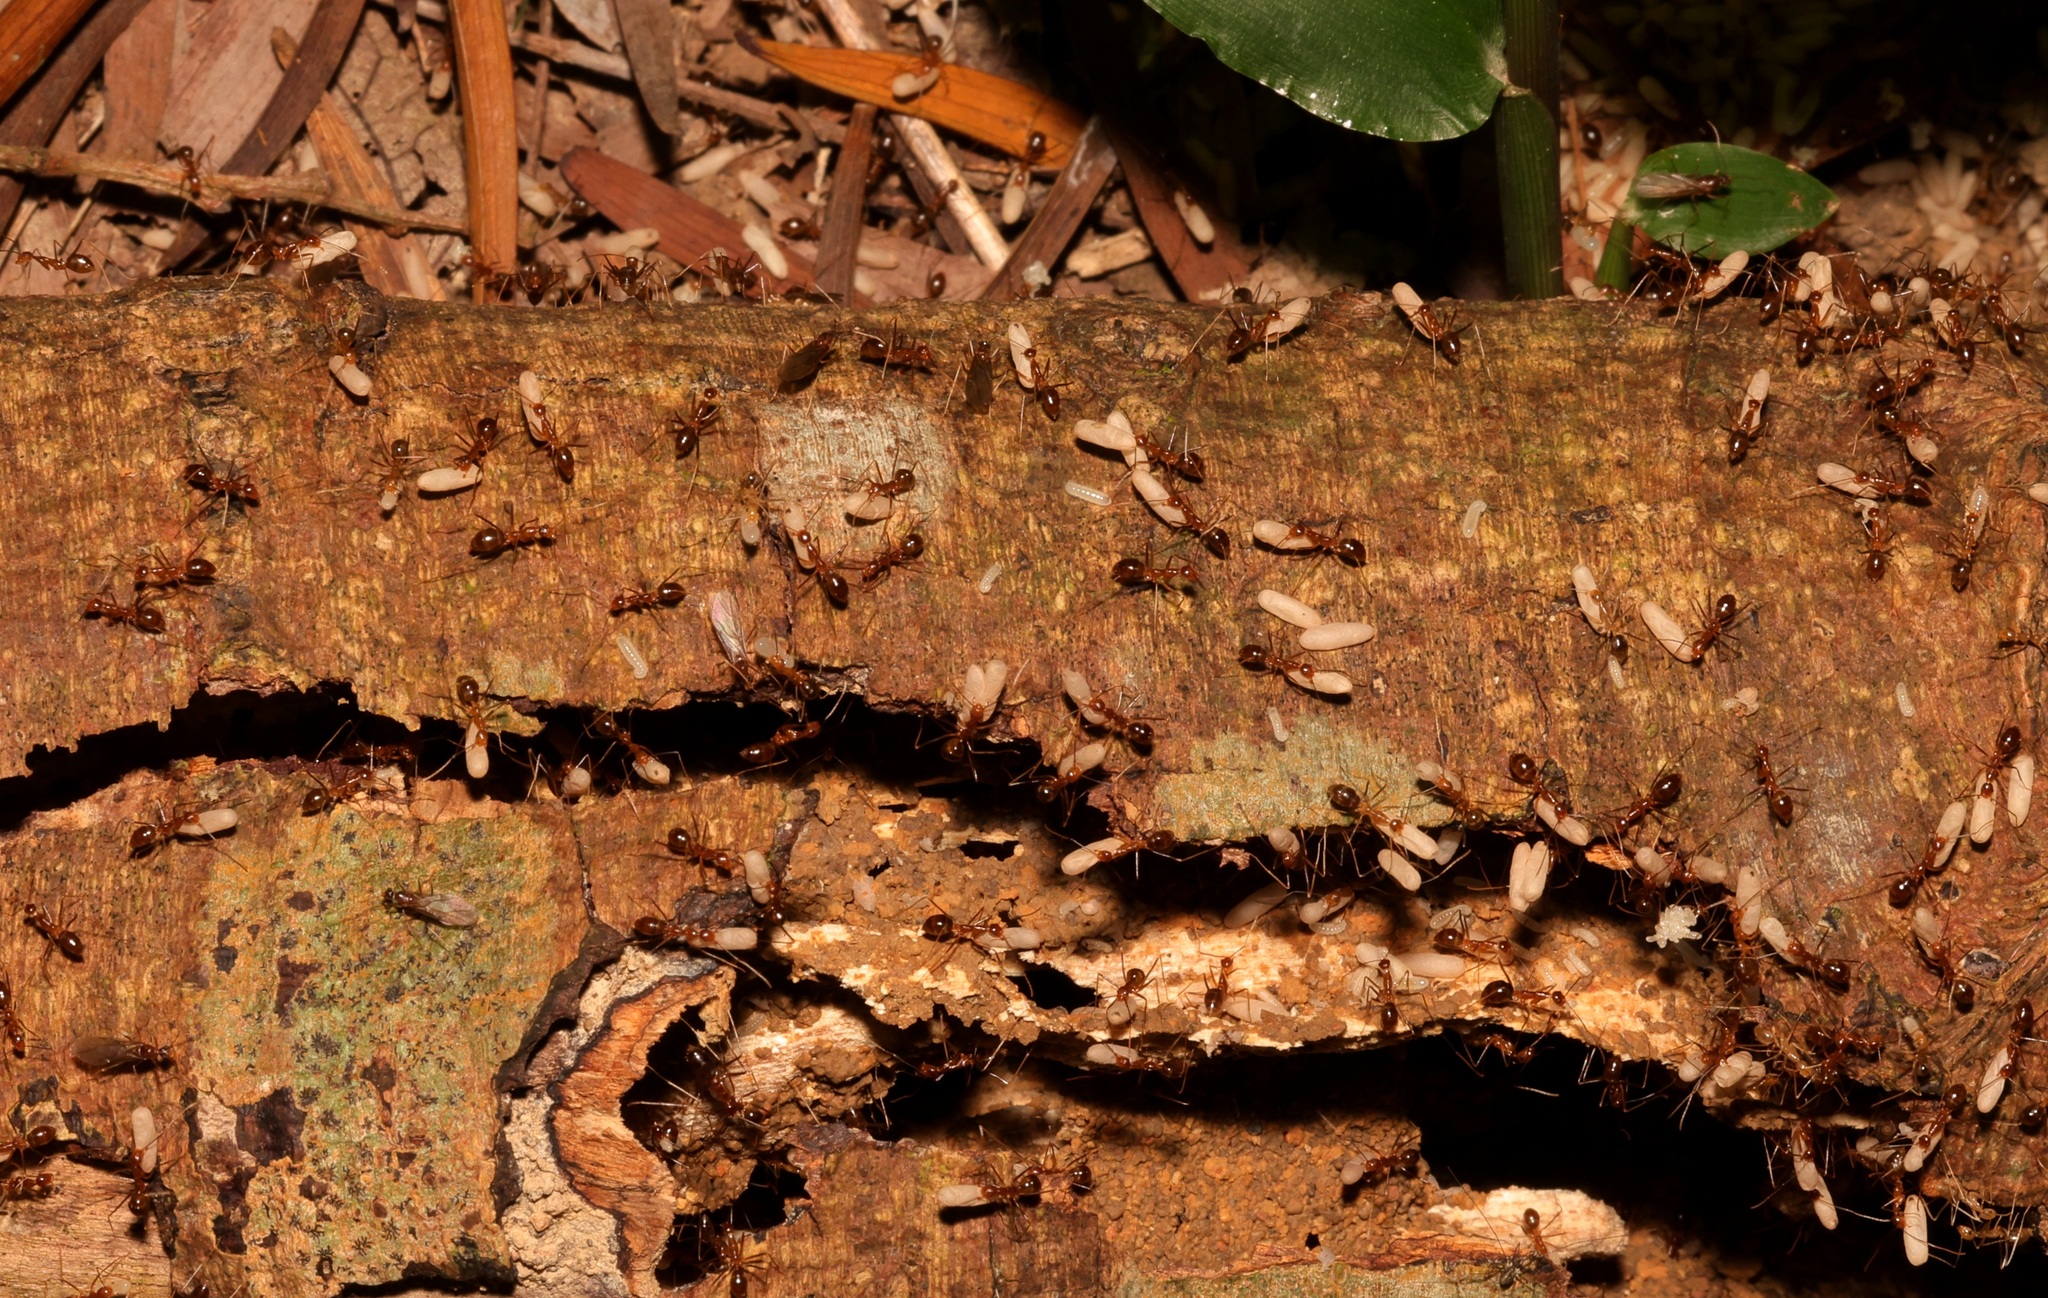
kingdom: Animalia
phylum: Arthropoda
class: Insecta
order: Hymenoptera
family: Formicidae
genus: Anoplolepis
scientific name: Anoplolepis gracilipes
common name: Ant
